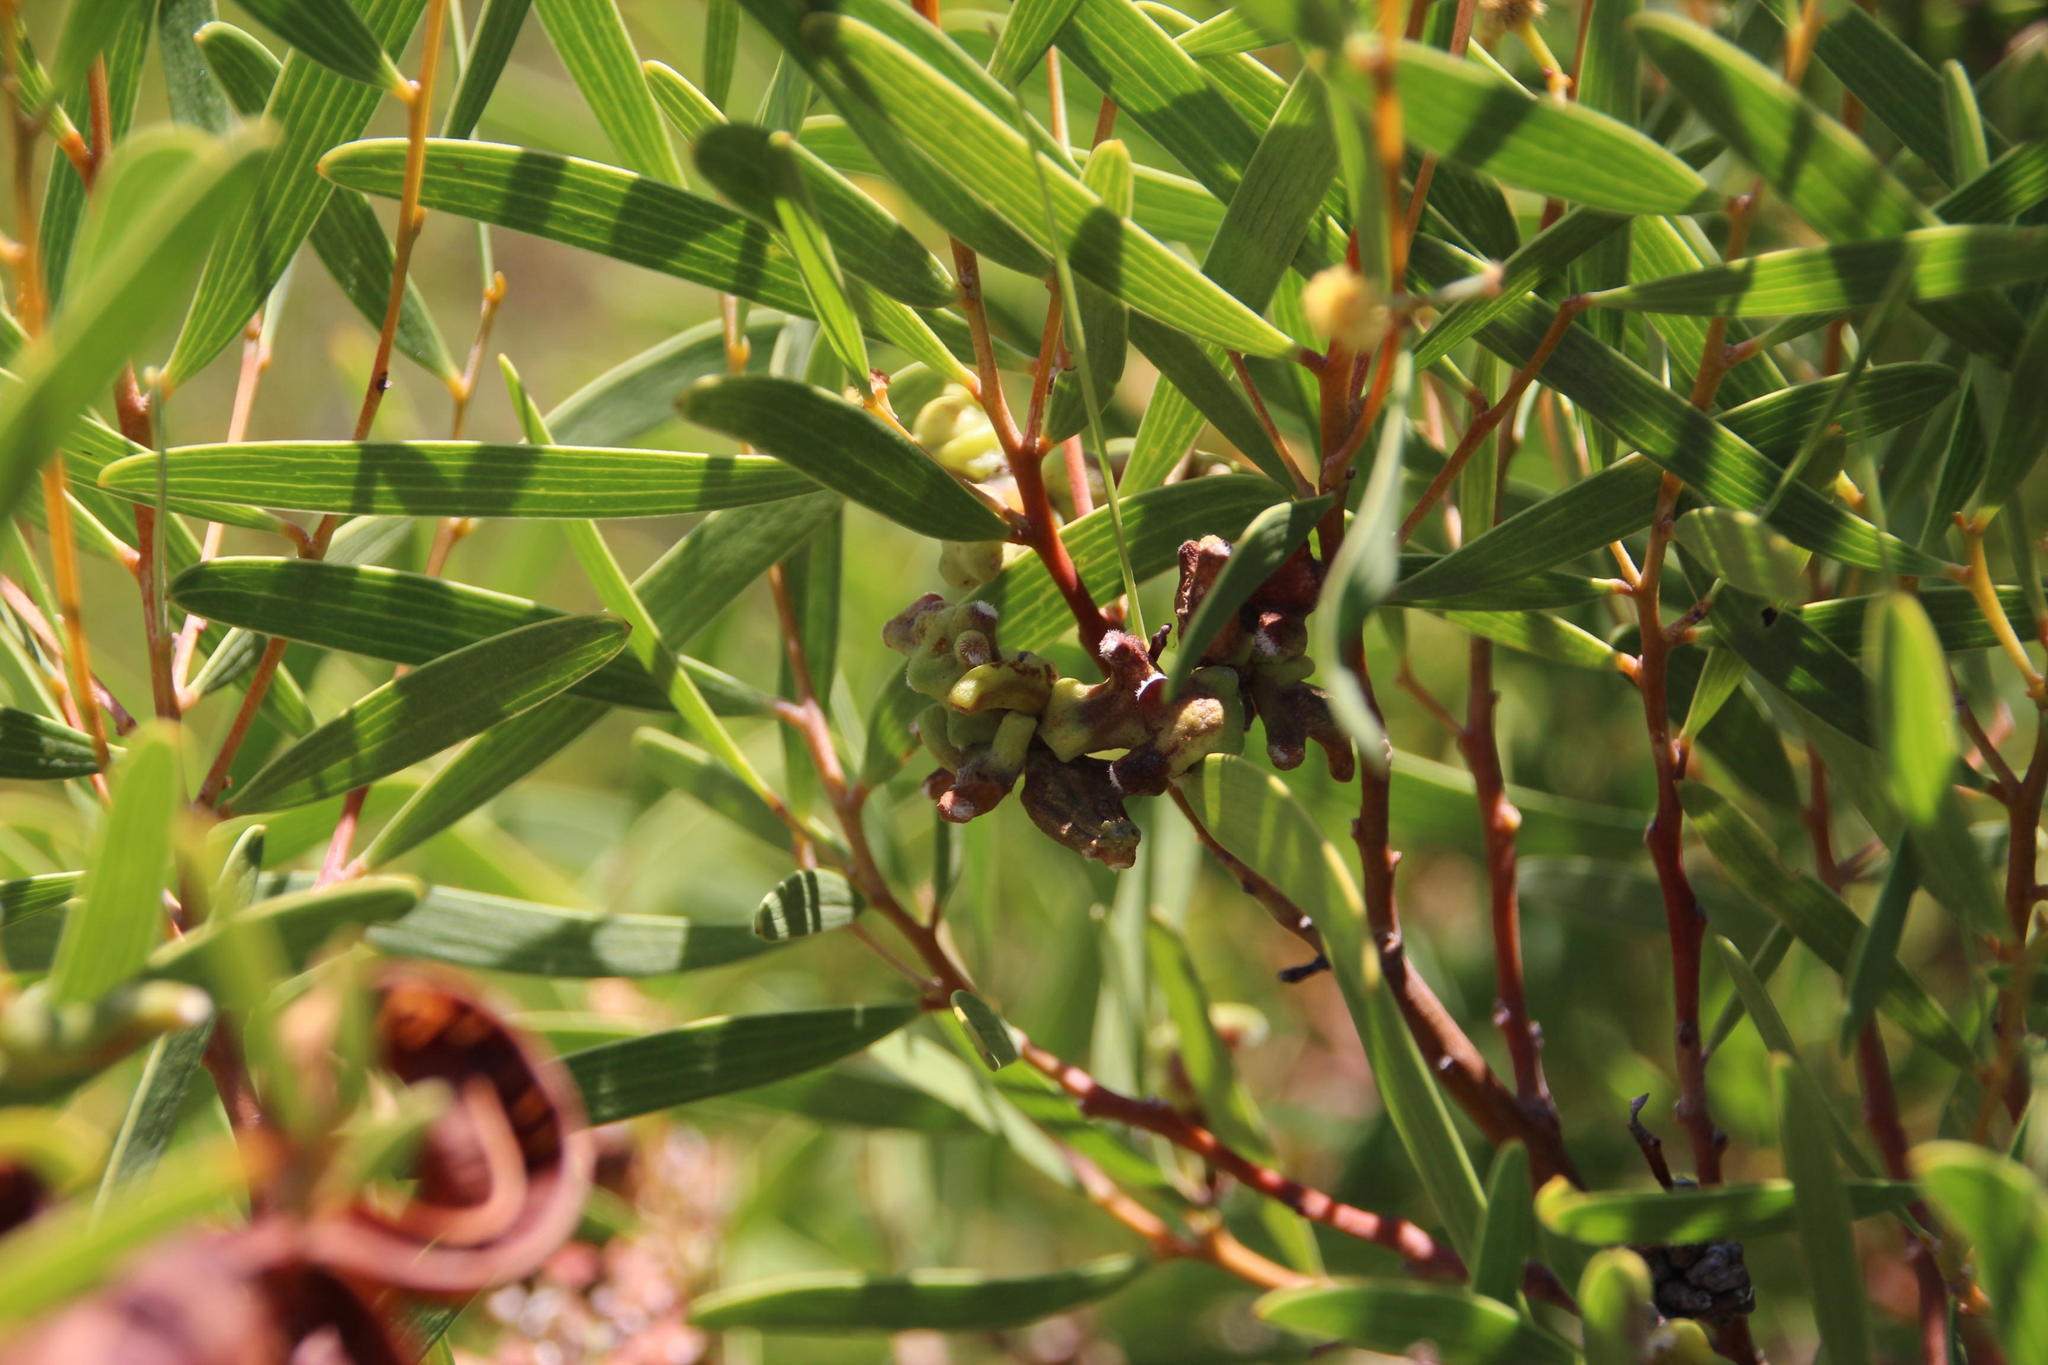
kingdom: Plantae
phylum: Tracheophyta
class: Magnoliopsida
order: Fabales
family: Fabaceae
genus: Acacia
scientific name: Acacia cyclops
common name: Coastal wattle
